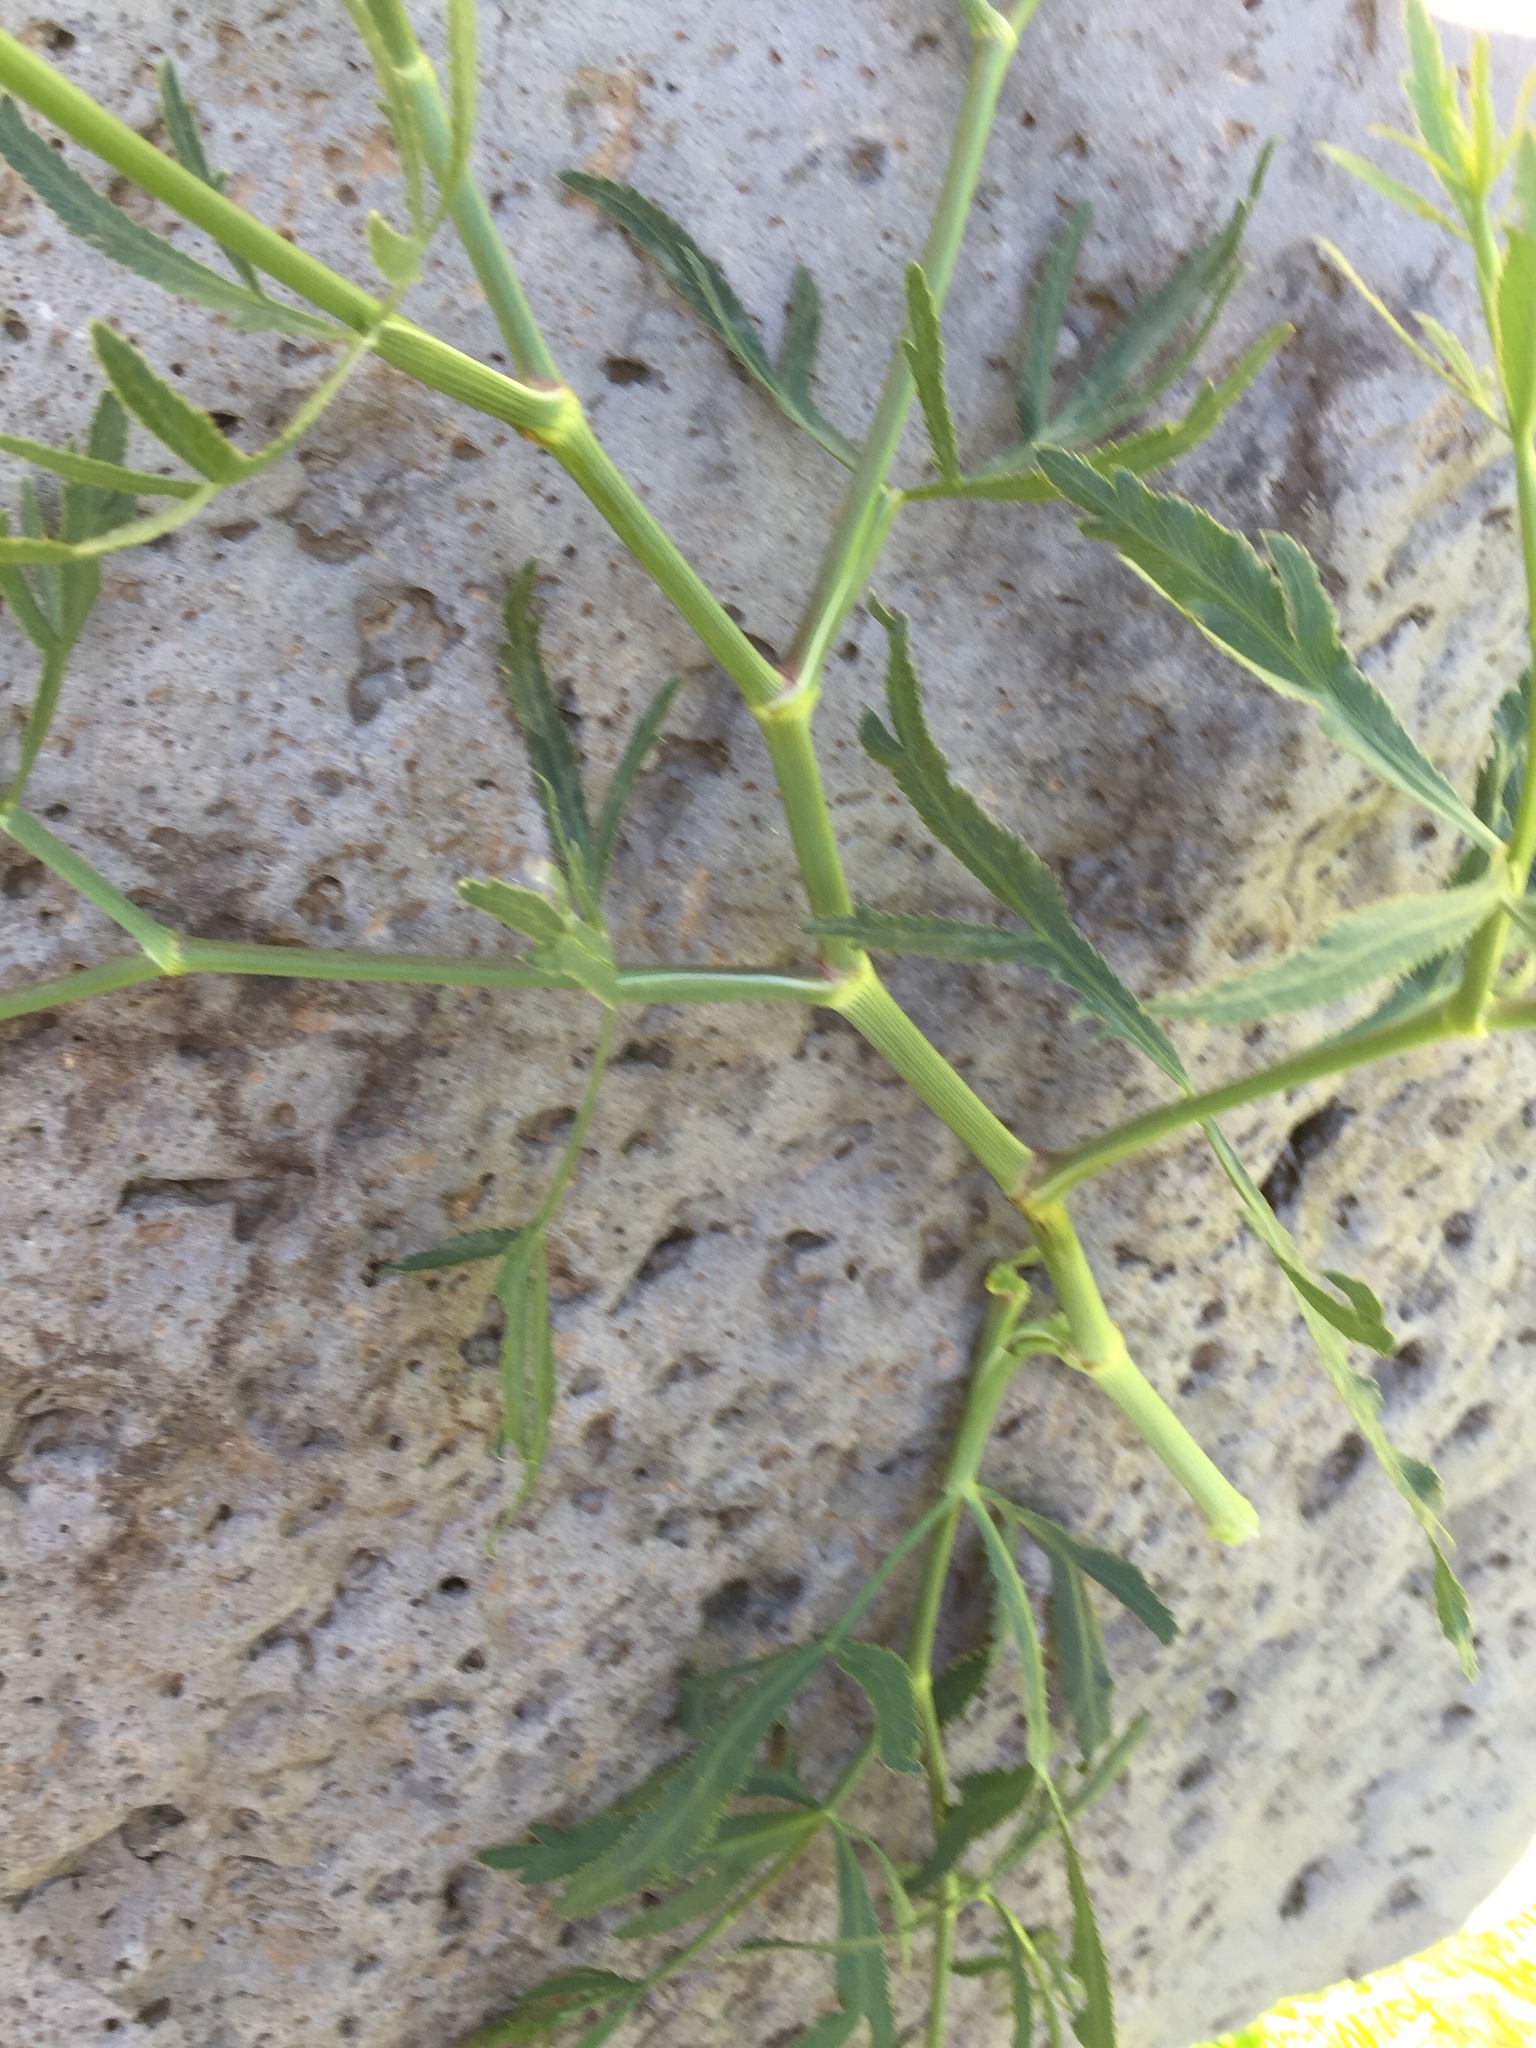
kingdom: Plantae
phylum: Tracheophyta
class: Magnoliopsida
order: Apiales
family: Apiaceae
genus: Falcaria
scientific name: Falcaria vulgaris
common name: Longleaf
